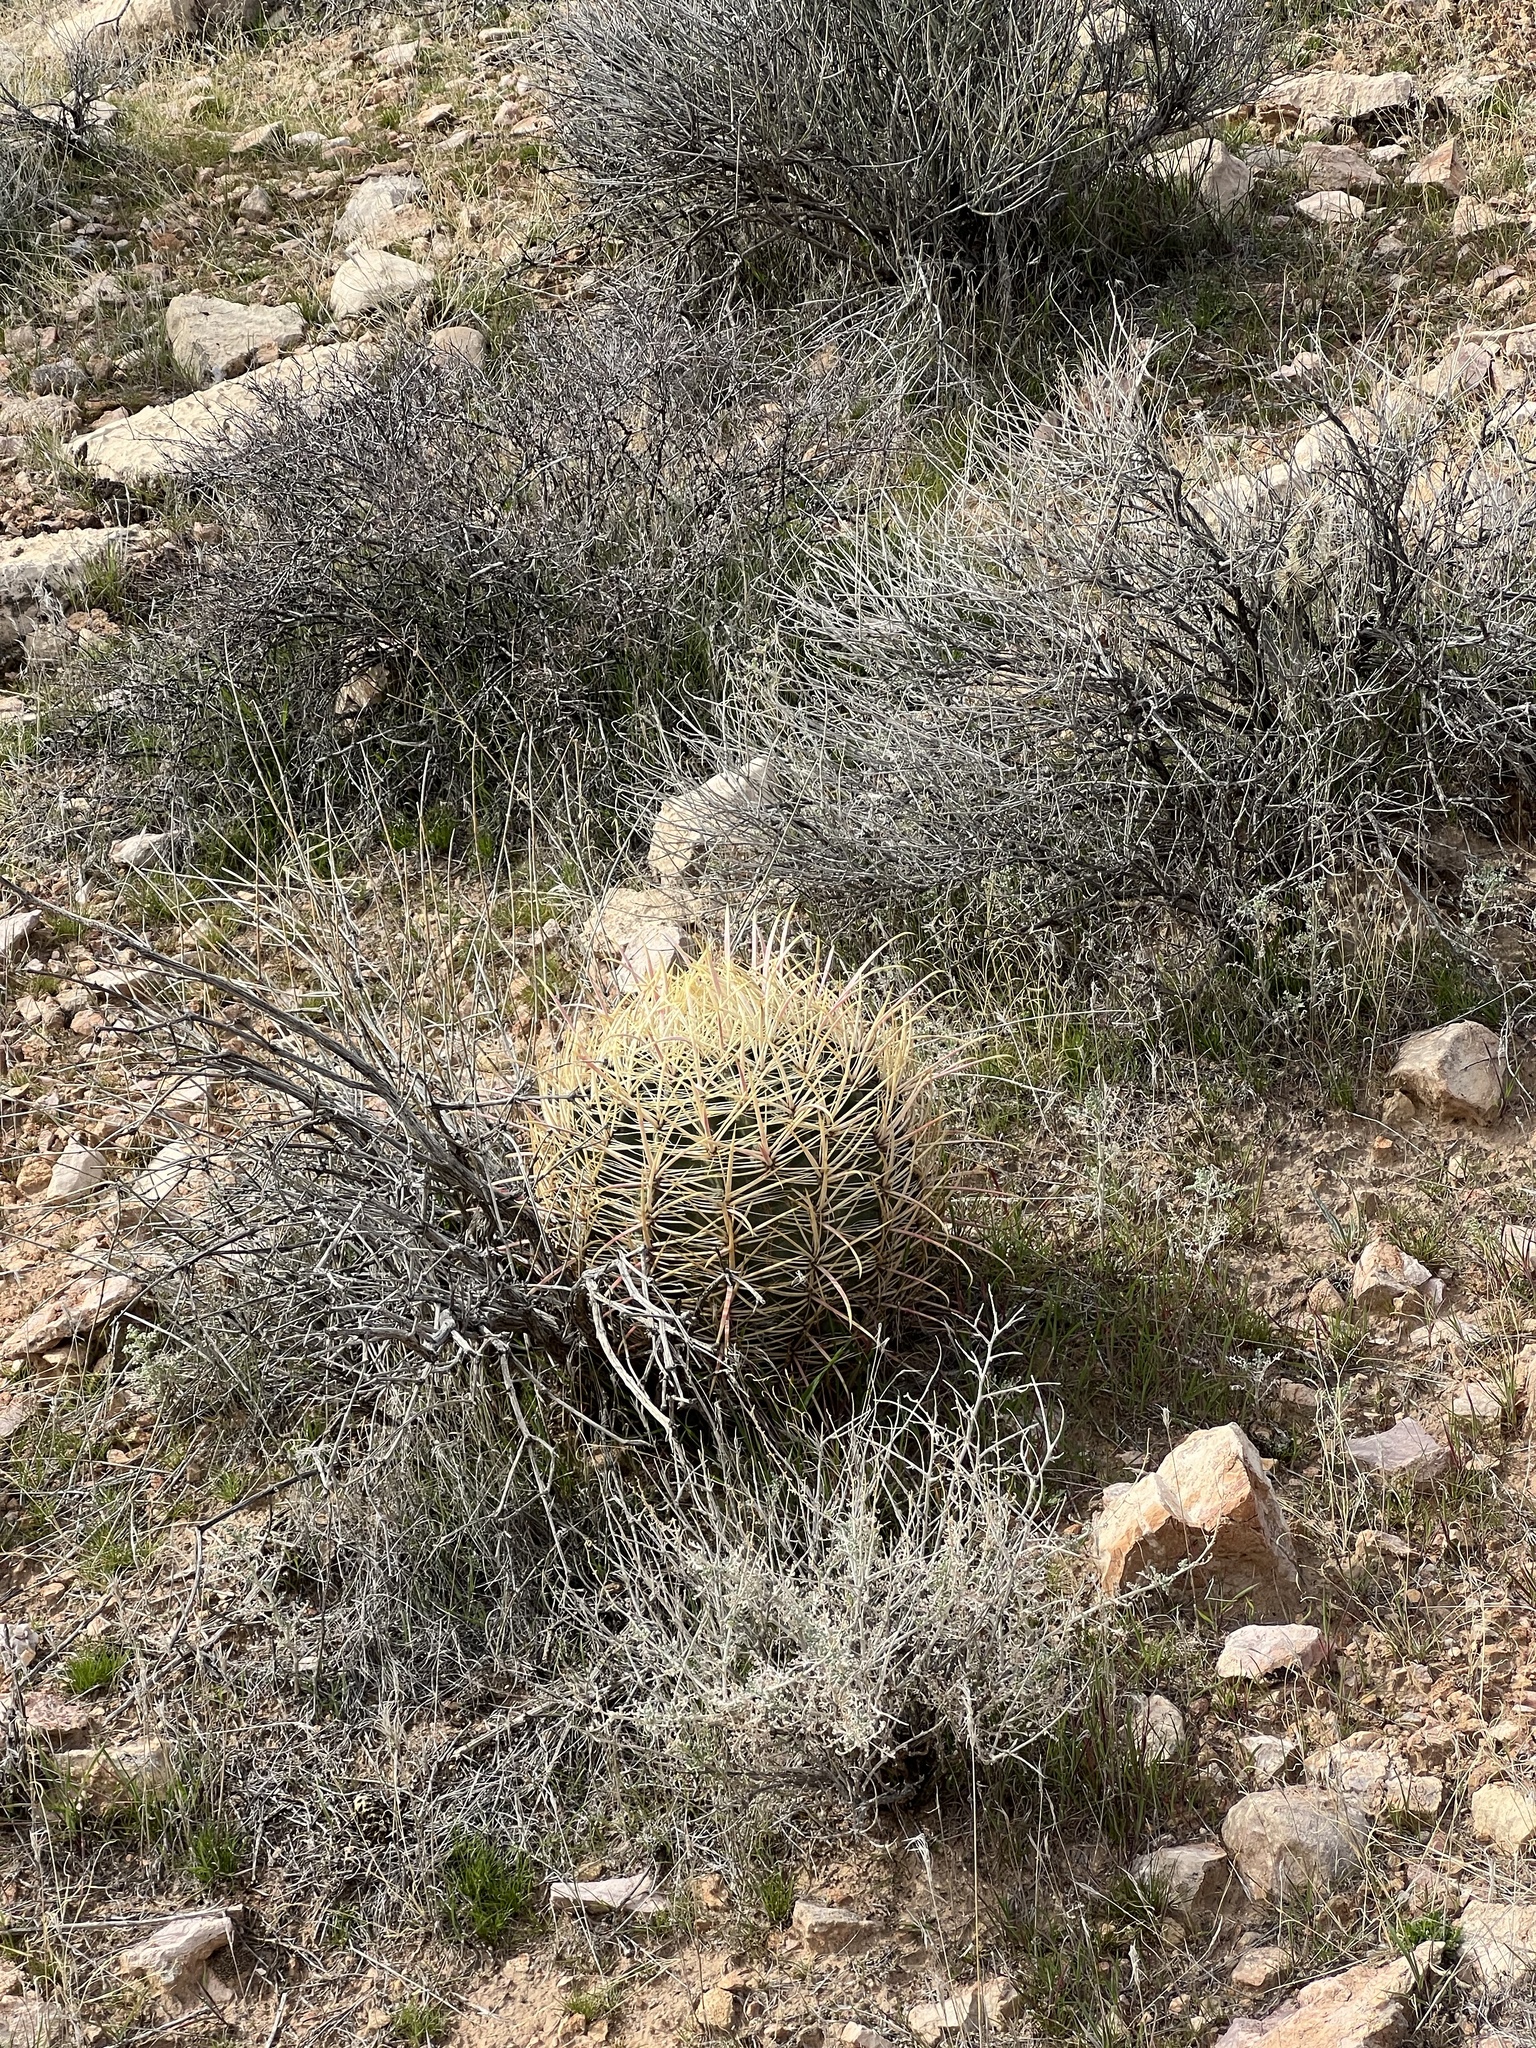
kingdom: Plantae
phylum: Tracheophyta
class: Magnoliopsida
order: Caryophyllales
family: Cactaceae
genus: Ferocactus
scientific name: Ferocactus cylindraceus
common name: California barrel cactus
